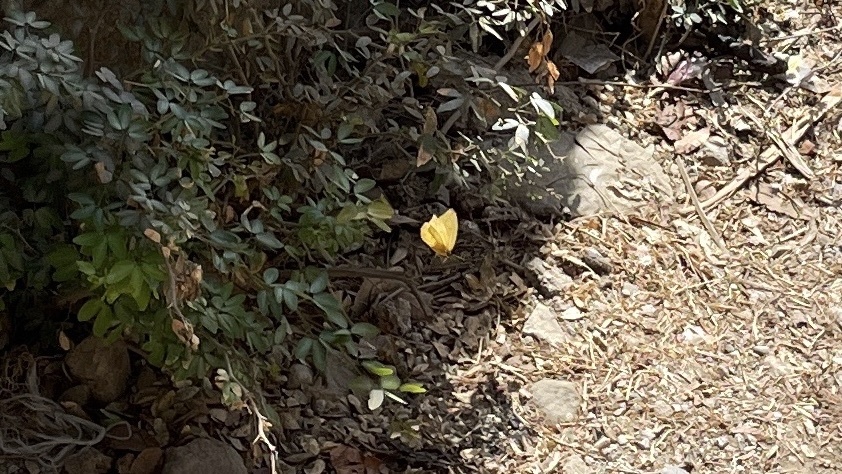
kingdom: Animalia
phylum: Arthropoda
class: Insecta
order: Lepidoptera
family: Pieridae
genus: Phoebis
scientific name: Phoebis agarithe
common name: Large orange sulphur
